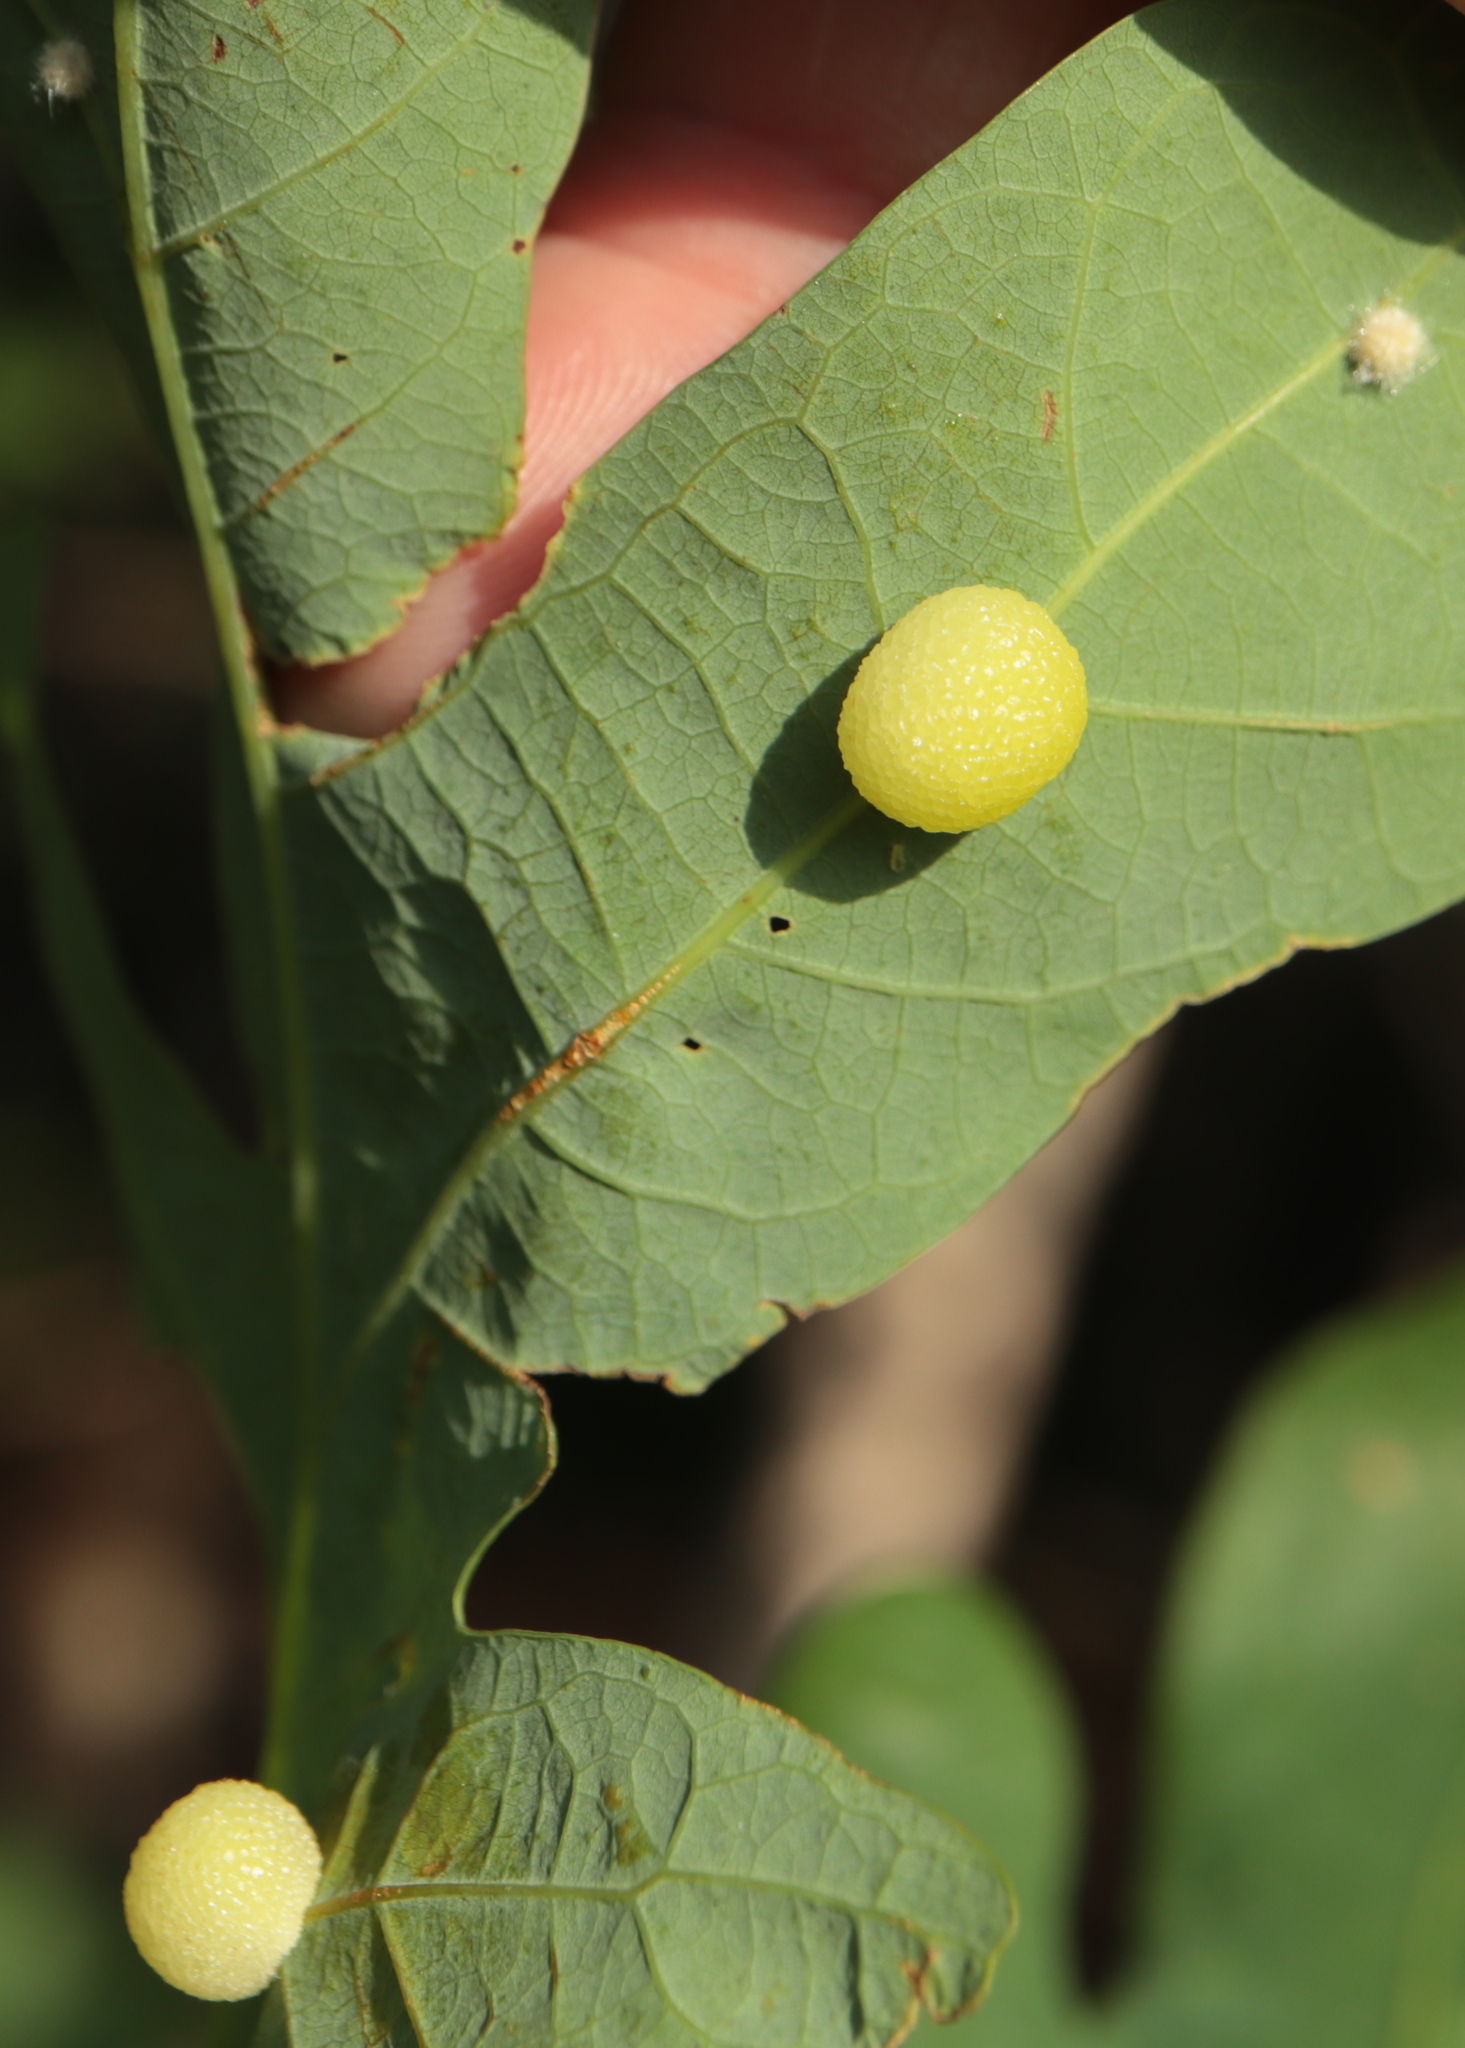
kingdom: Animalia
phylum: Arthropoda
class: Insecta
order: Hymenoptera
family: Cynipidae
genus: Acraspis
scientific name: Acraspis
